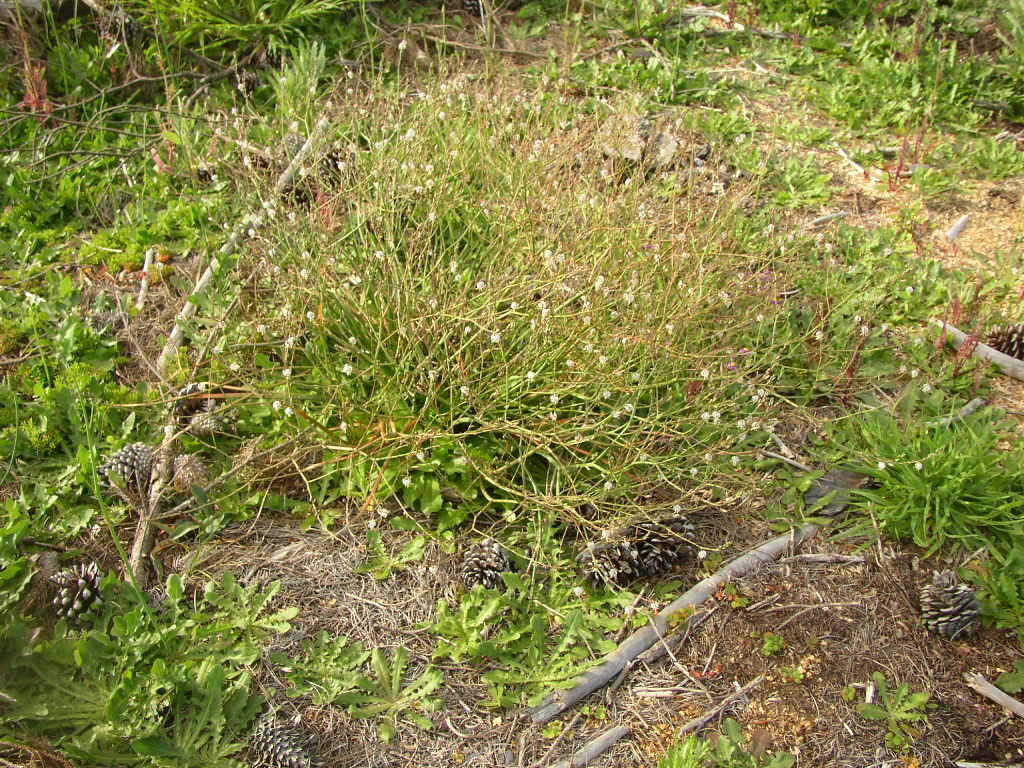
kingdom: Plantae
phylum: Tracheophyta
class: Liliopsida
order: Asparagales
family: Asphodelaceae
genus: Trachyandra
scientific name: Trachyandra divaricata
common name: Dune onionweed
